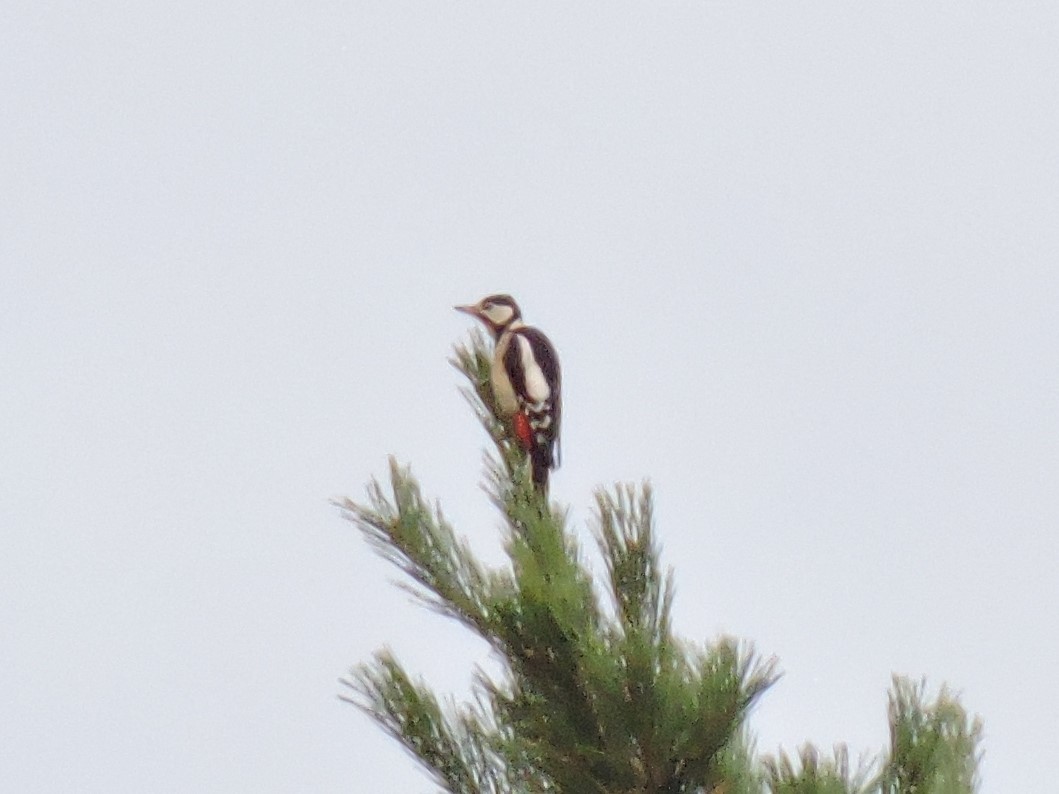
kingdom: Animalia
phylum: Chordata
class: Aves
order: Piciformes
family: Picidae
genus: Dendrocopos
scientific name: Dendrocopos major
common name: Great spotted woodpecker
